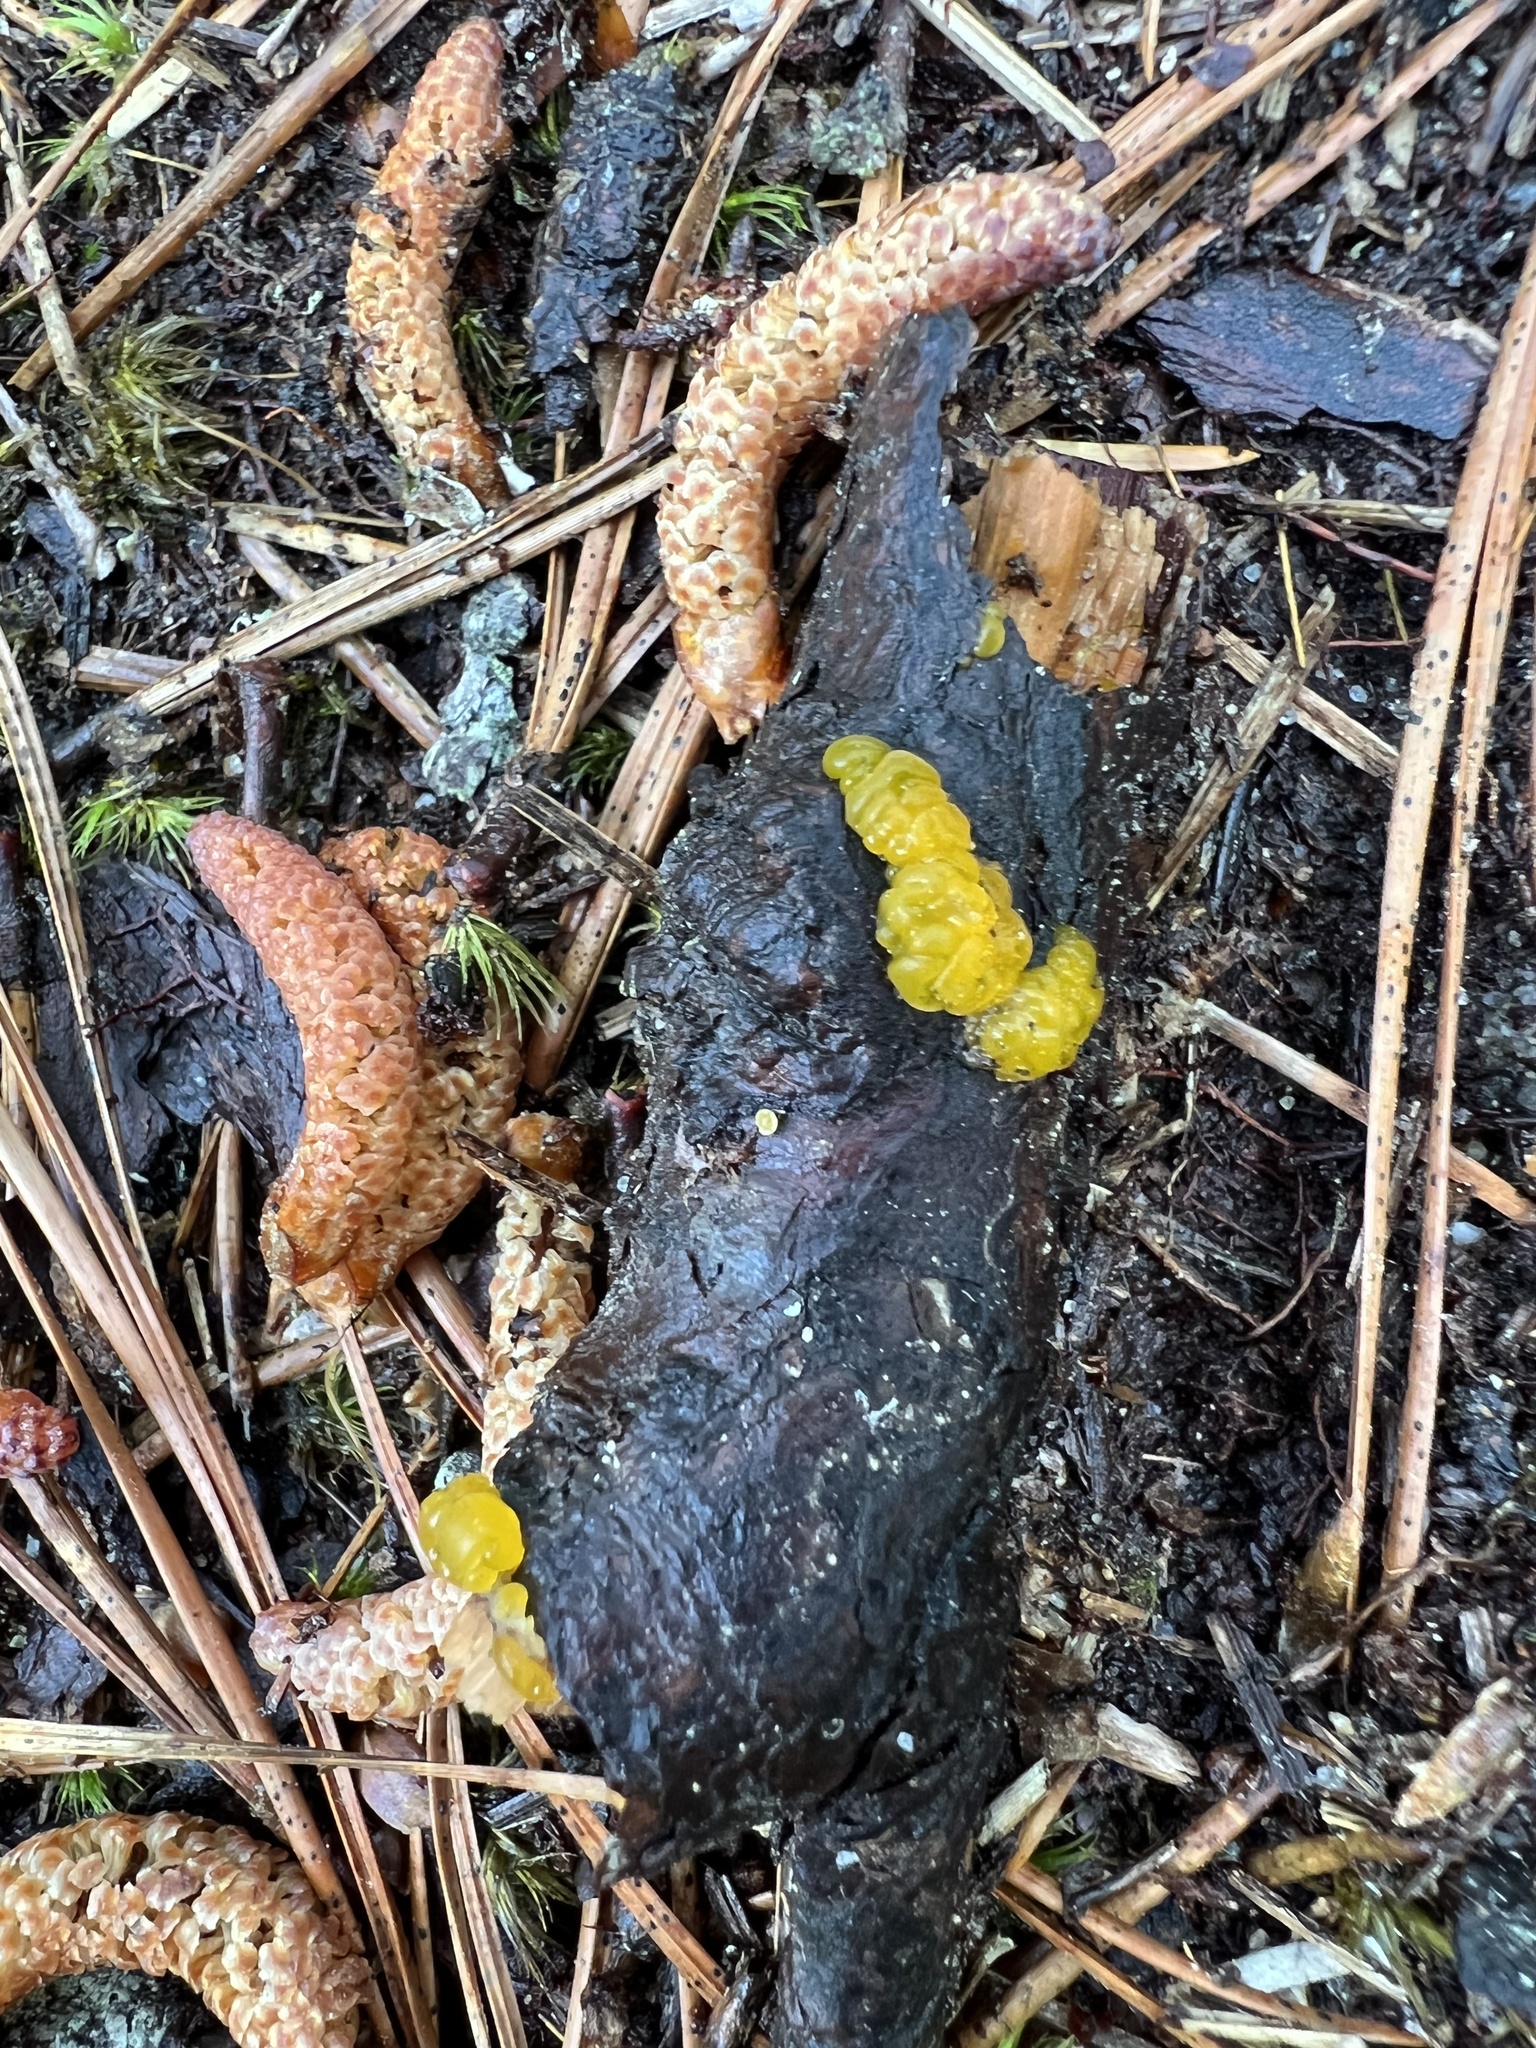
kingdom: Fungi
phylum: Basidiomycota
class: Dacrymycetes
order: Dacrymycetales
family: Dacrymycetaceae
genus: Dacrymyces
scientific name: Dacrymyces chrysospermus
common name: Orange jelly spot
